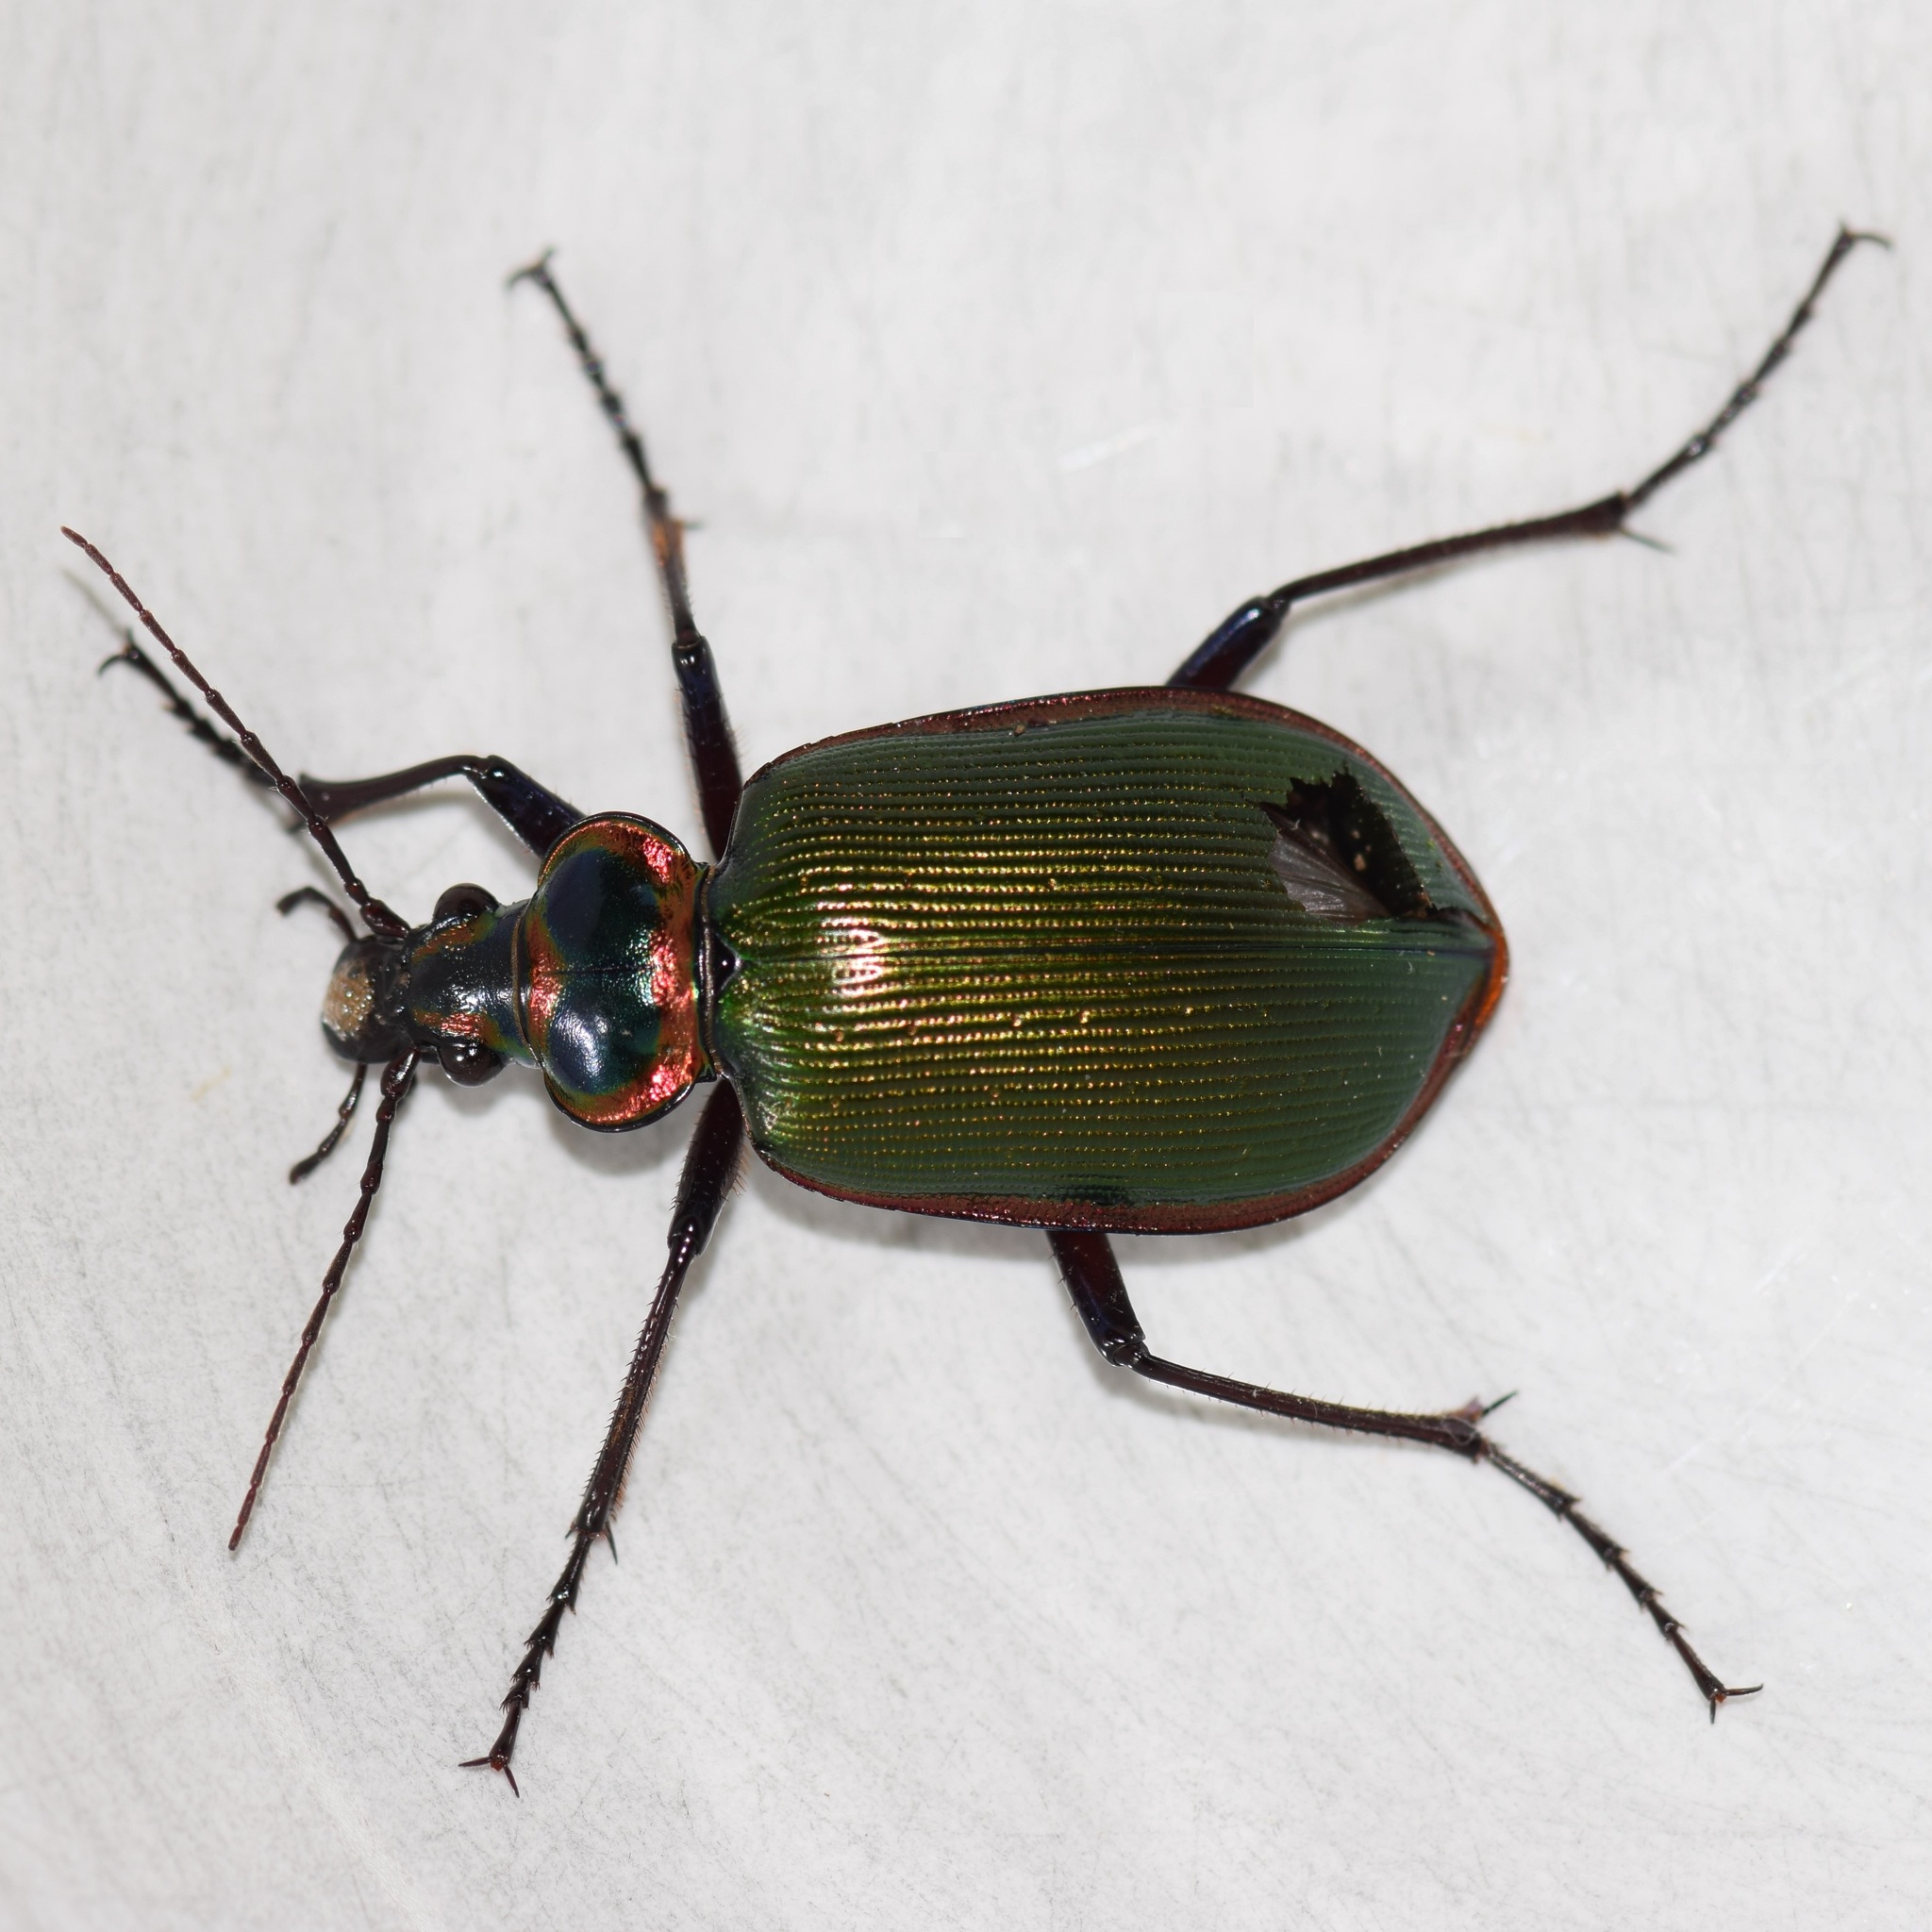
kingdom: Animalia
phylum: Arthropoda
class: Insecta
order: Coleoptera
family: Carabidae
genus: Calosoma
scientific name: Calosoma scrutator
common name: Fiery searcher beetle
